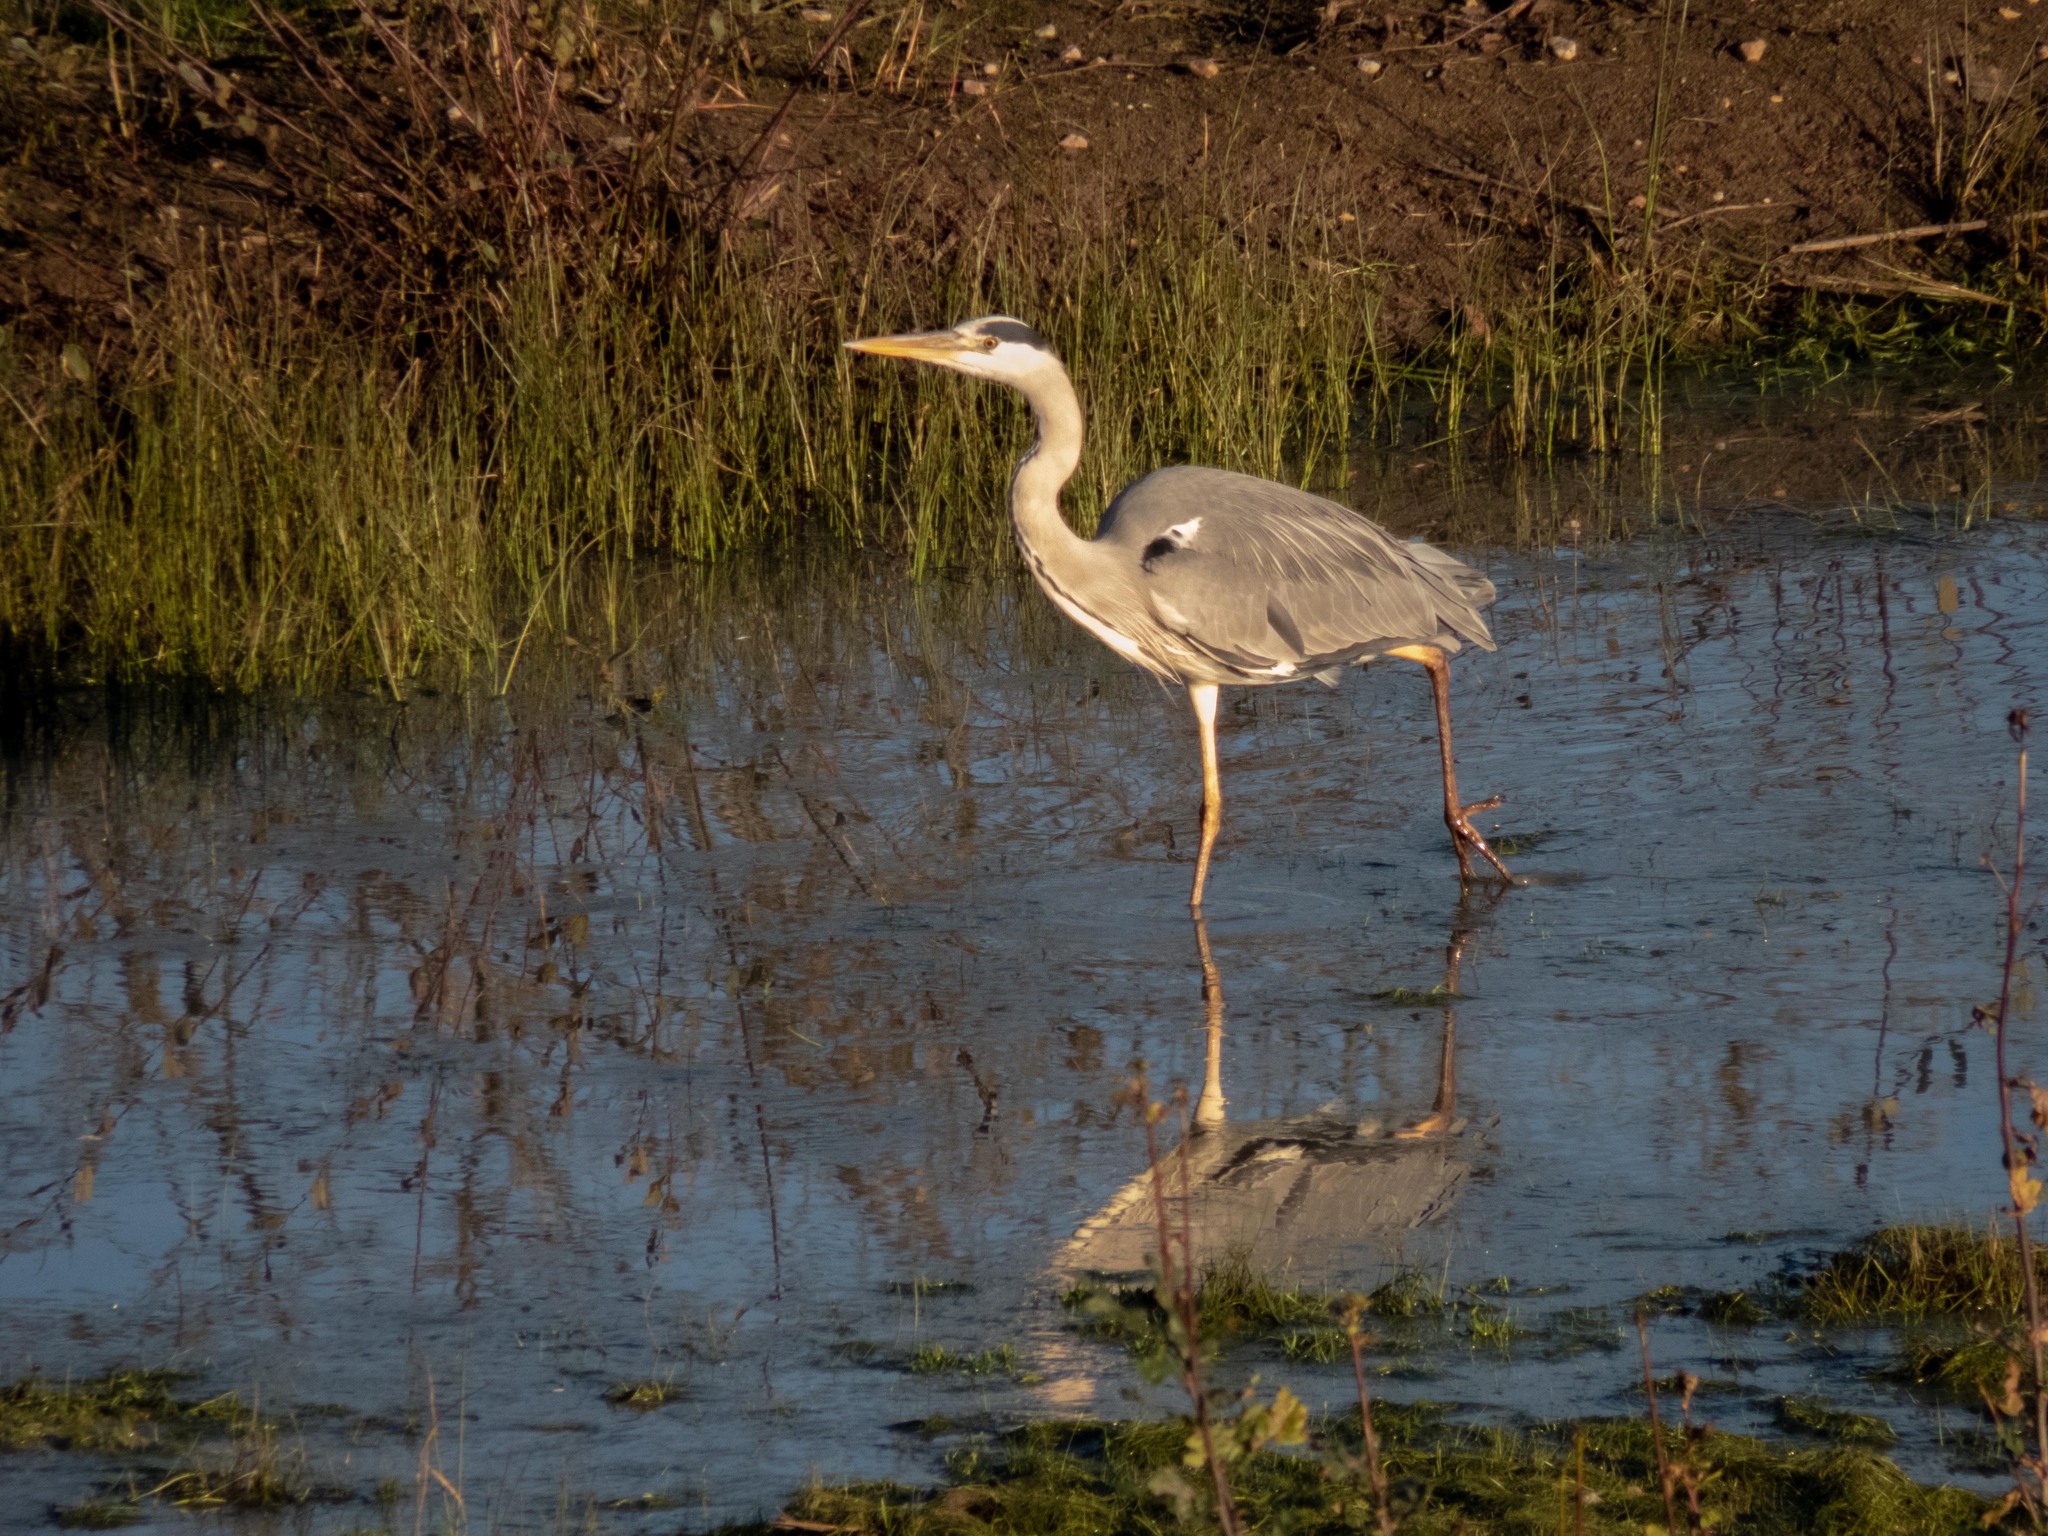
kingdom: Animalia
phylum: Chordata
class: Aves
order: Pelecaniformes
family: Ardeidae
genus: Ardea
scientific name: Ardea cinerea
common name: Grey heron
